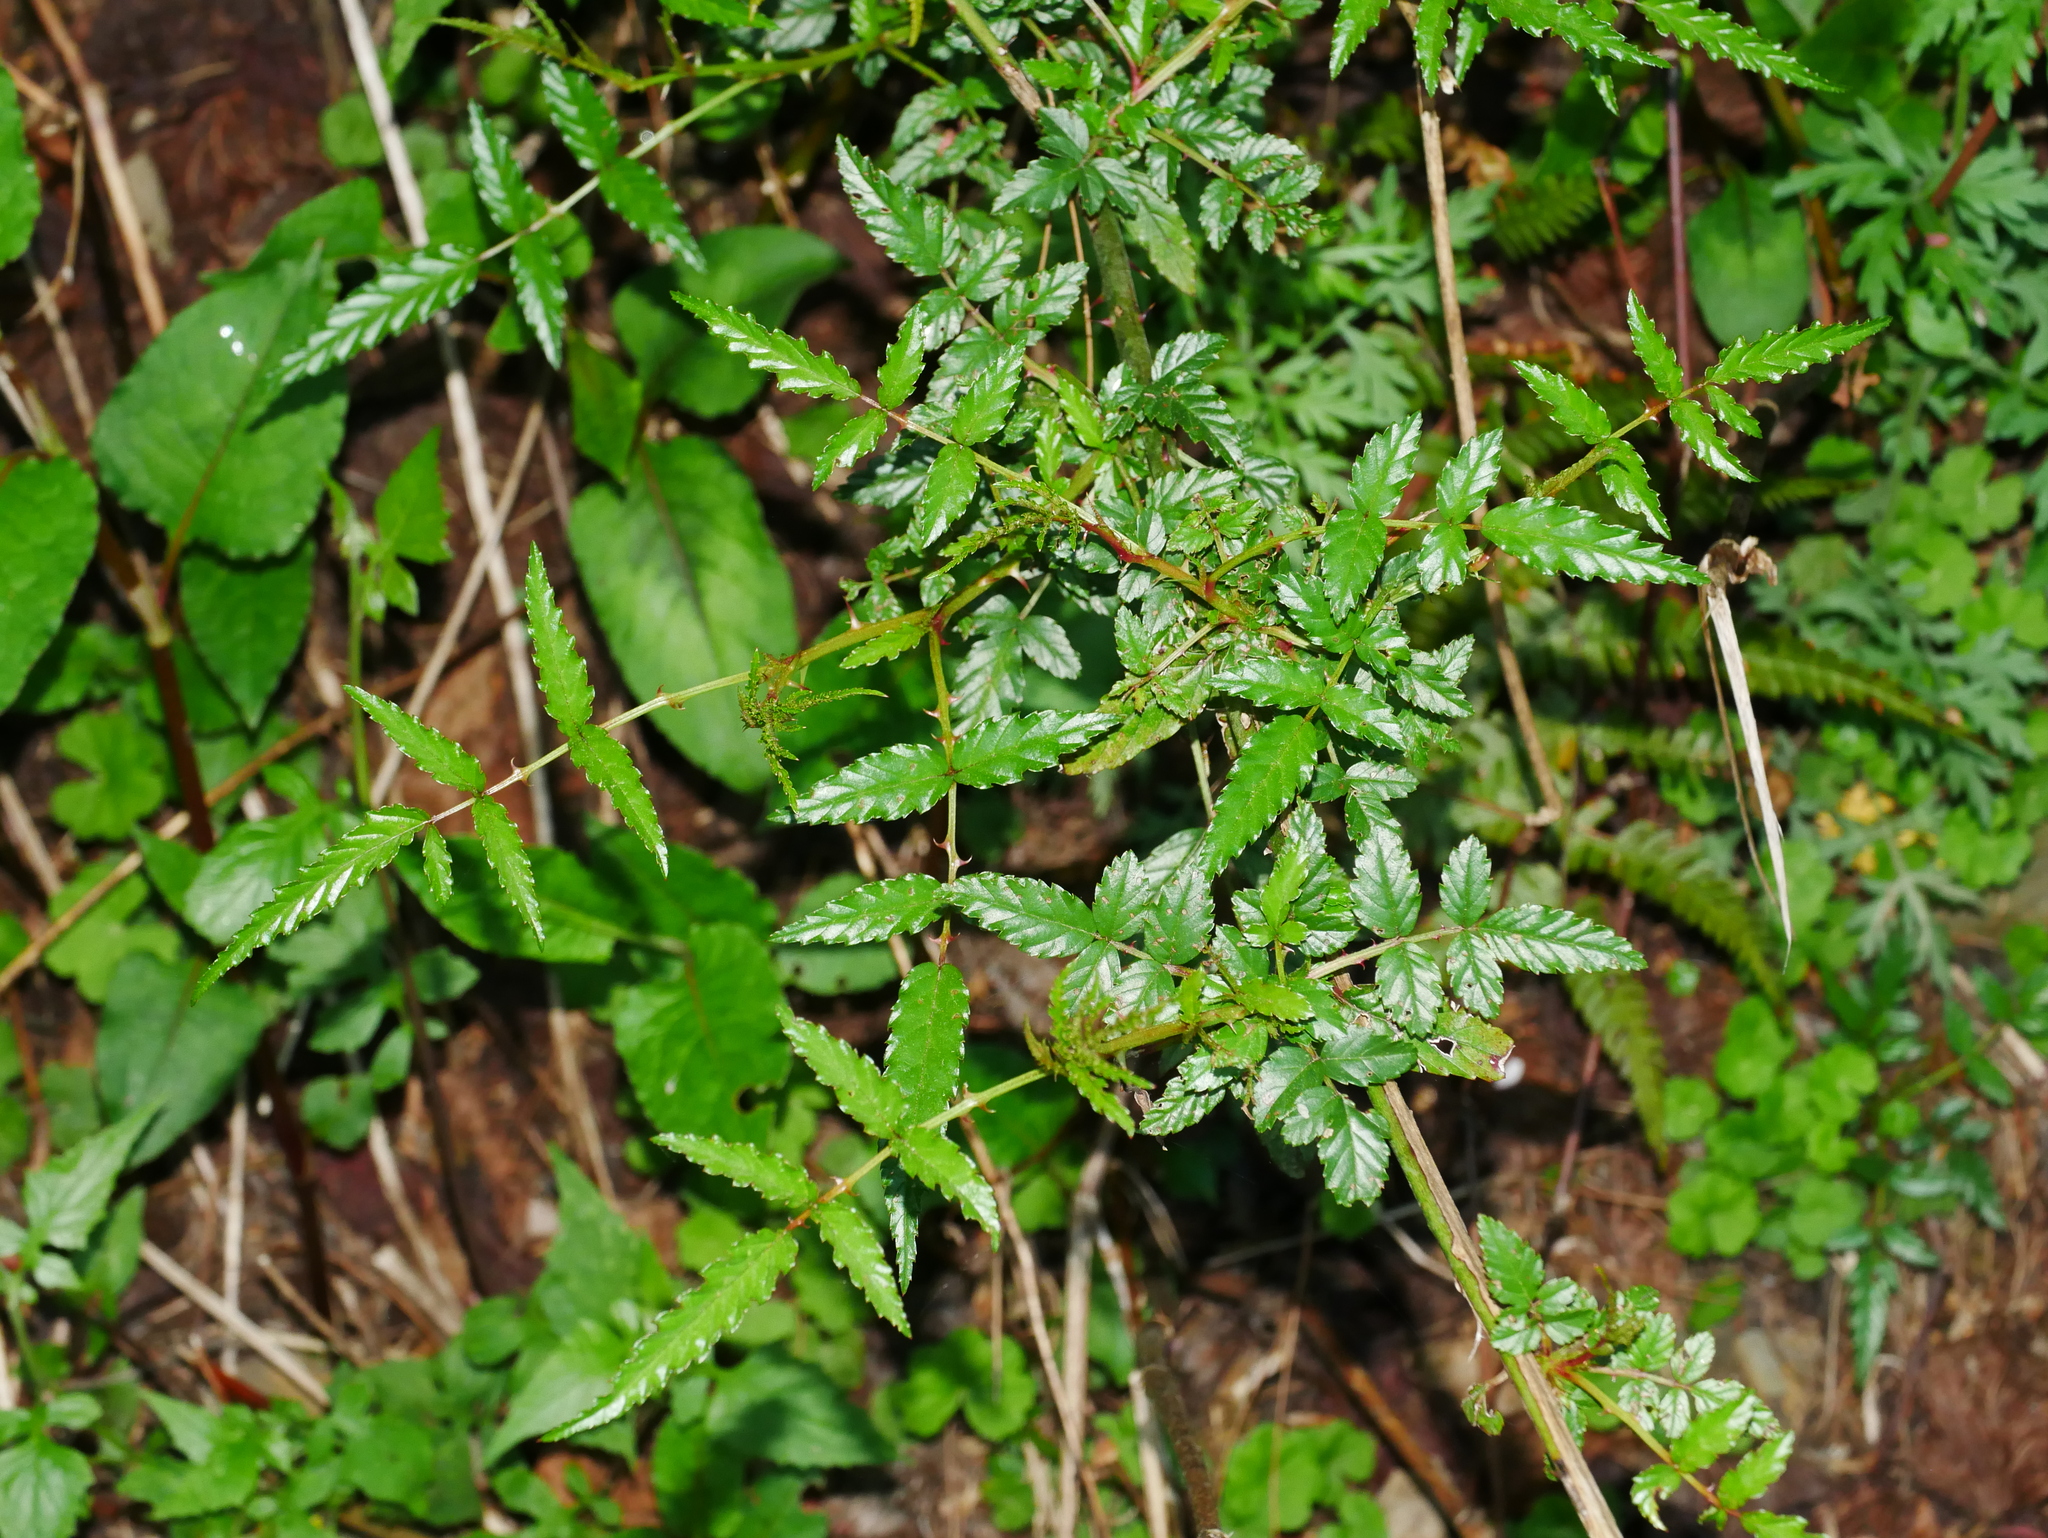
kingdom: Plantae
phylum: Tracheophyta
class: Magnoliopsida
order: Rosales
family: Rosaceae
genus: Rubus
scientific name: Rubus croceacanthus
